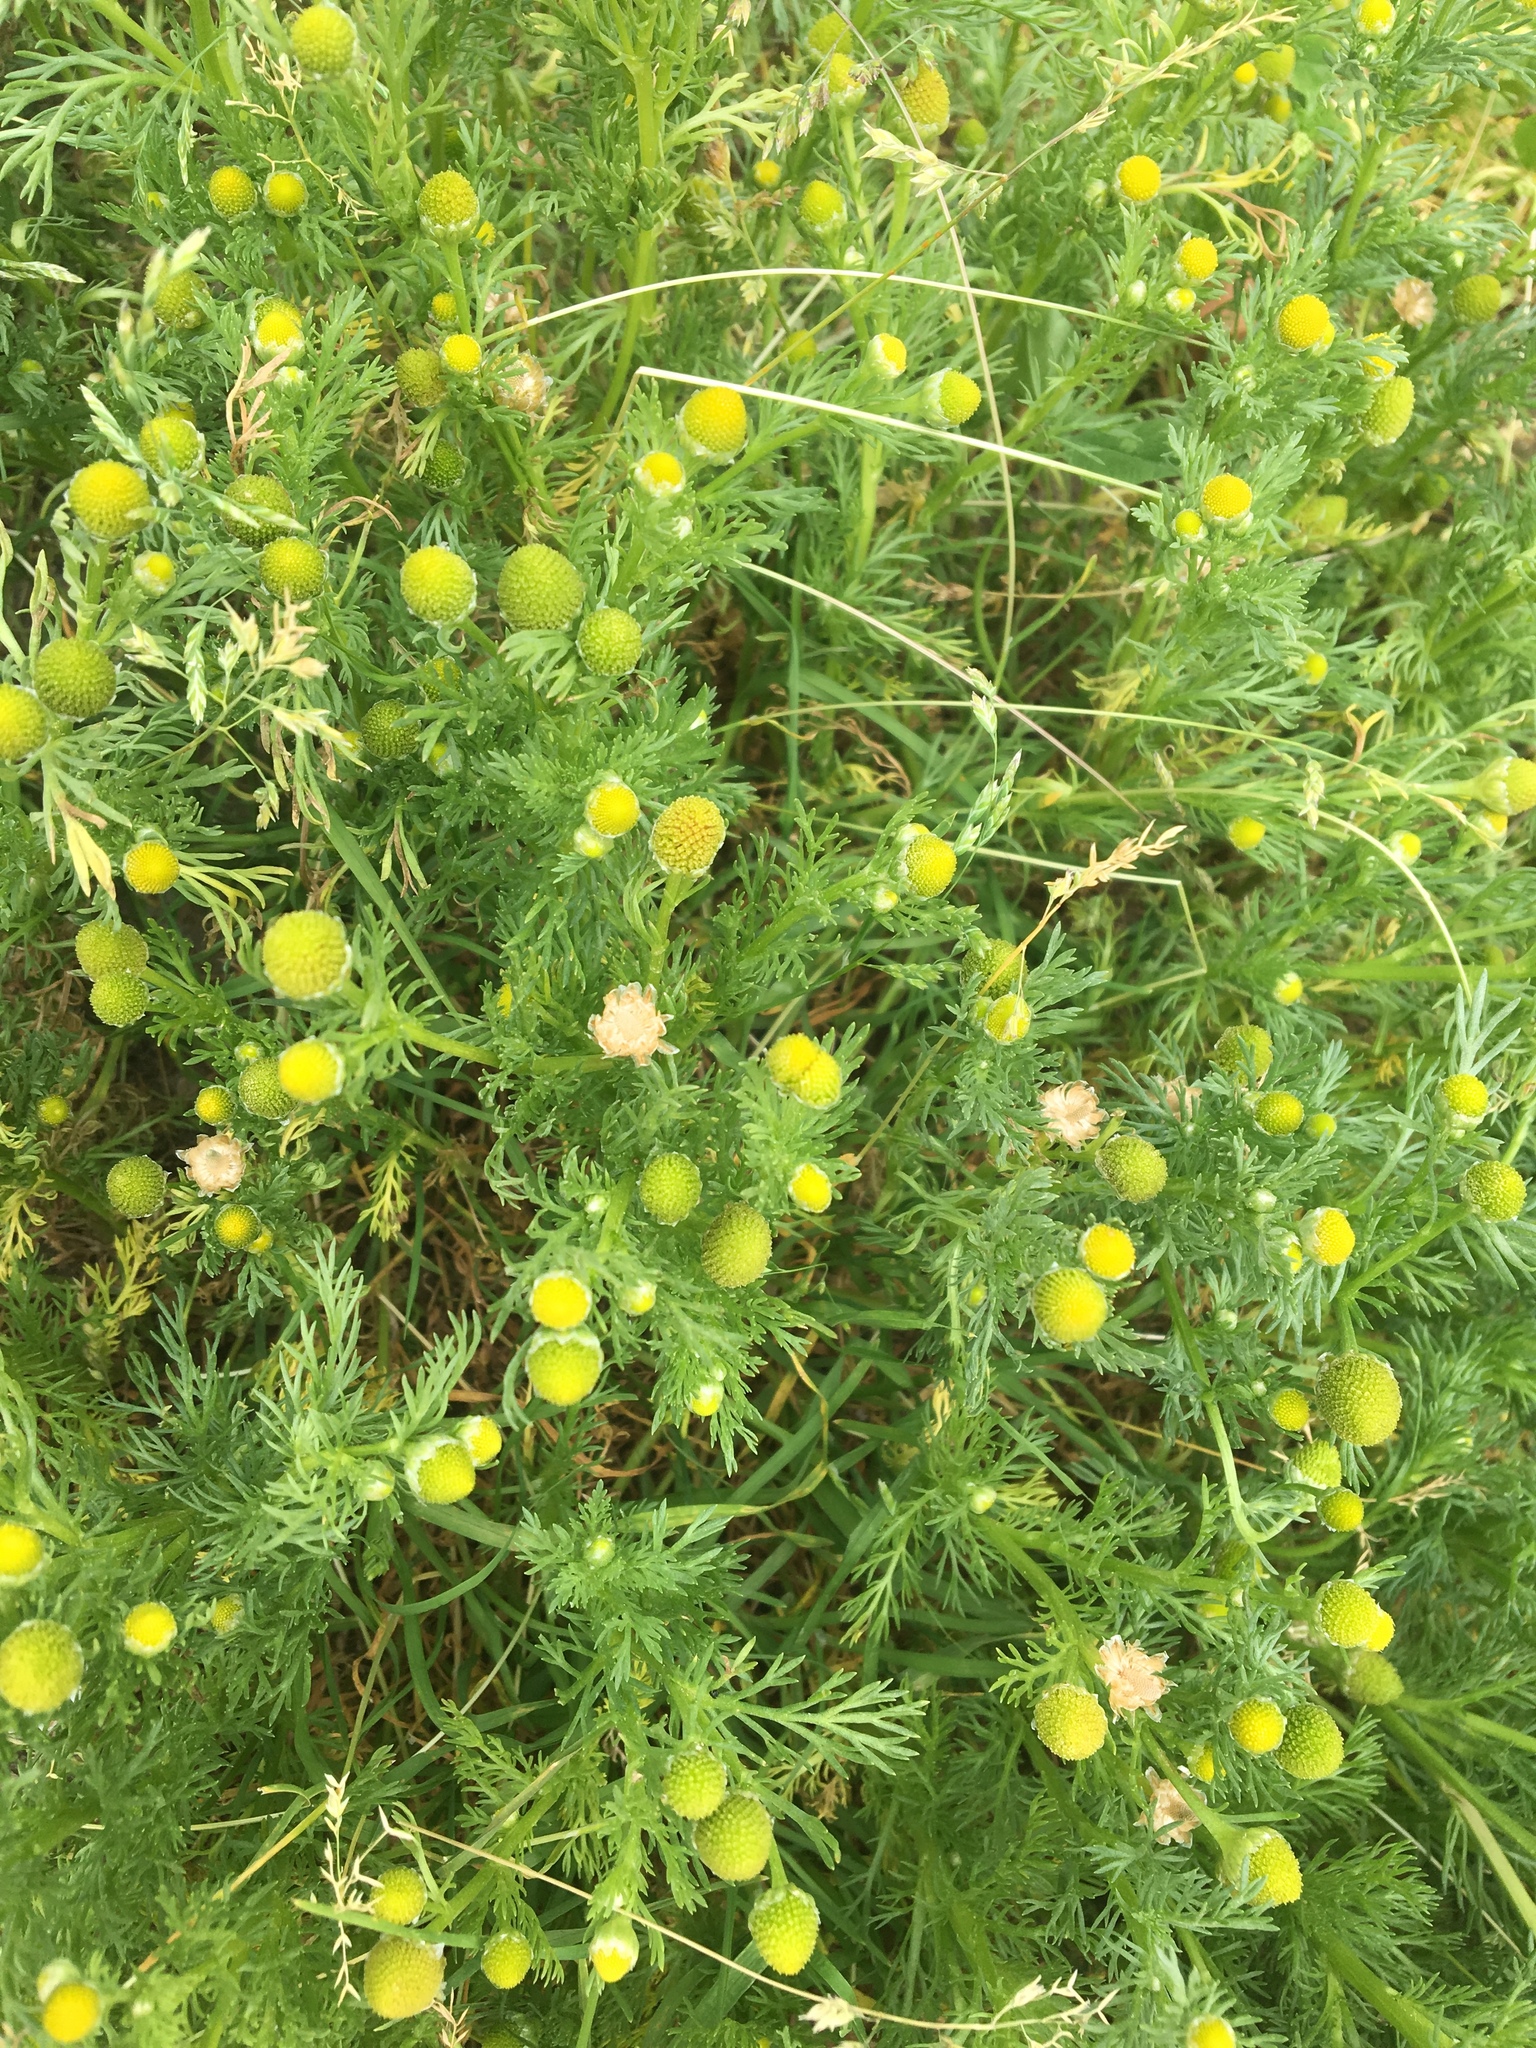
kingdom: Plantae
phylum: Tracheophyta
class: Magnoliopsida
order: Asterales
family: Asteraceae
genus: Matricaria
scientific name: Matricaria discoidea
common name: Disc mayweed
